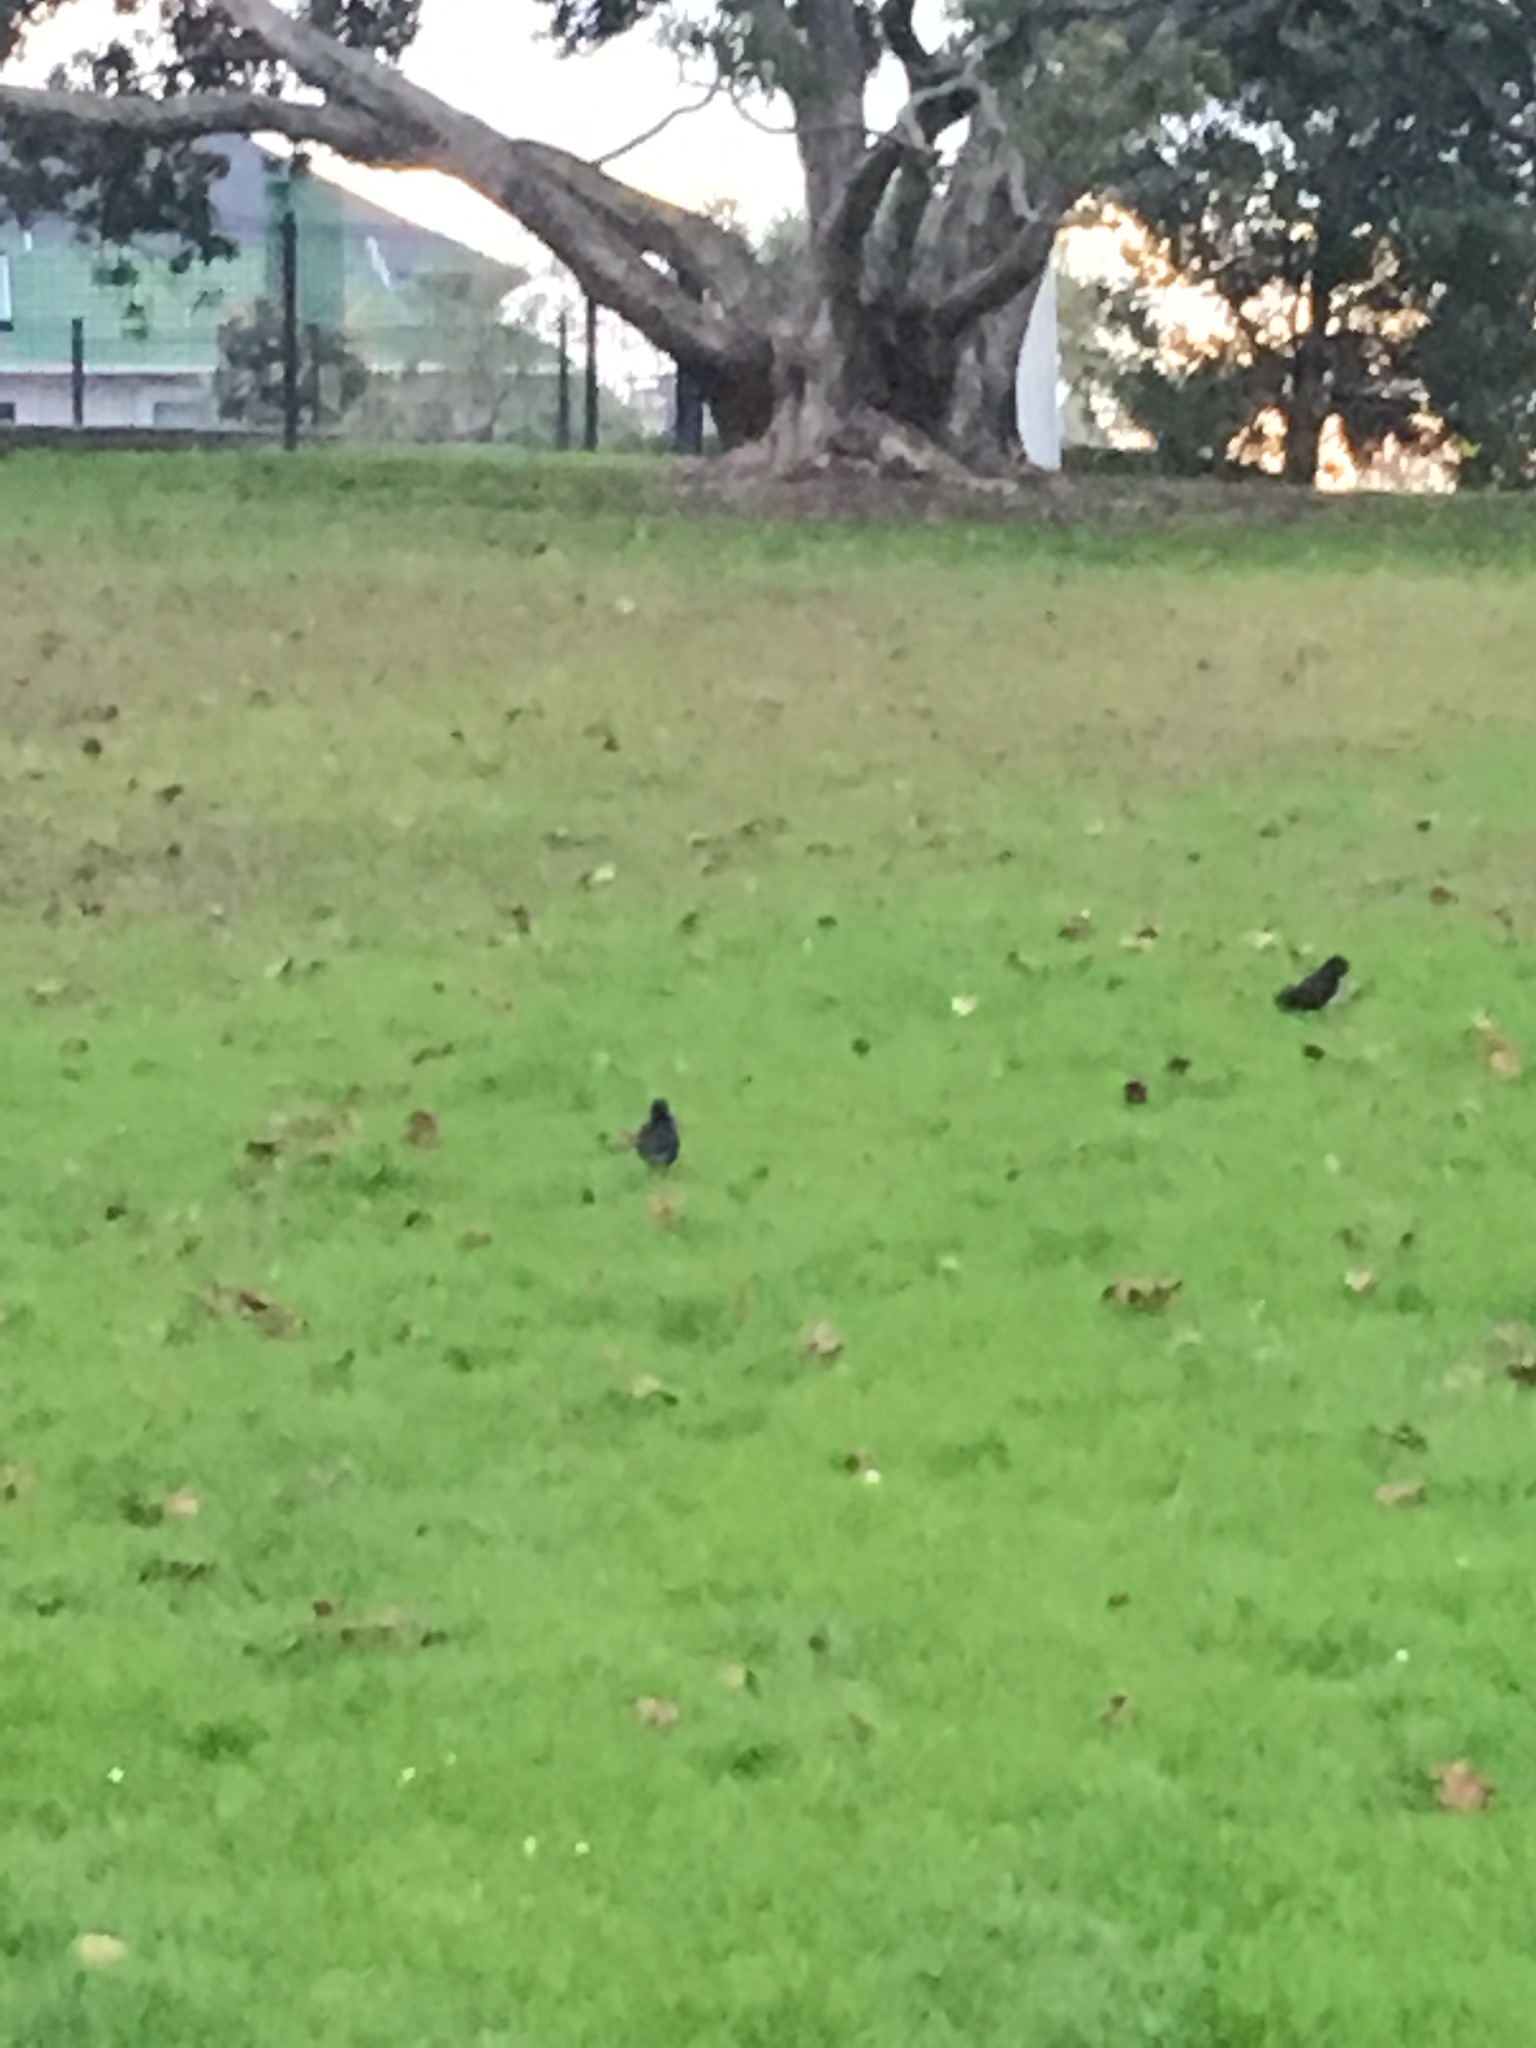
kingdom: Animalia
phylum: Chordata
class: Aves
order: Passeriformes
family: Turdidae
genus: Turdus
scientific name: Turdus merula
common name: Common blackbird
